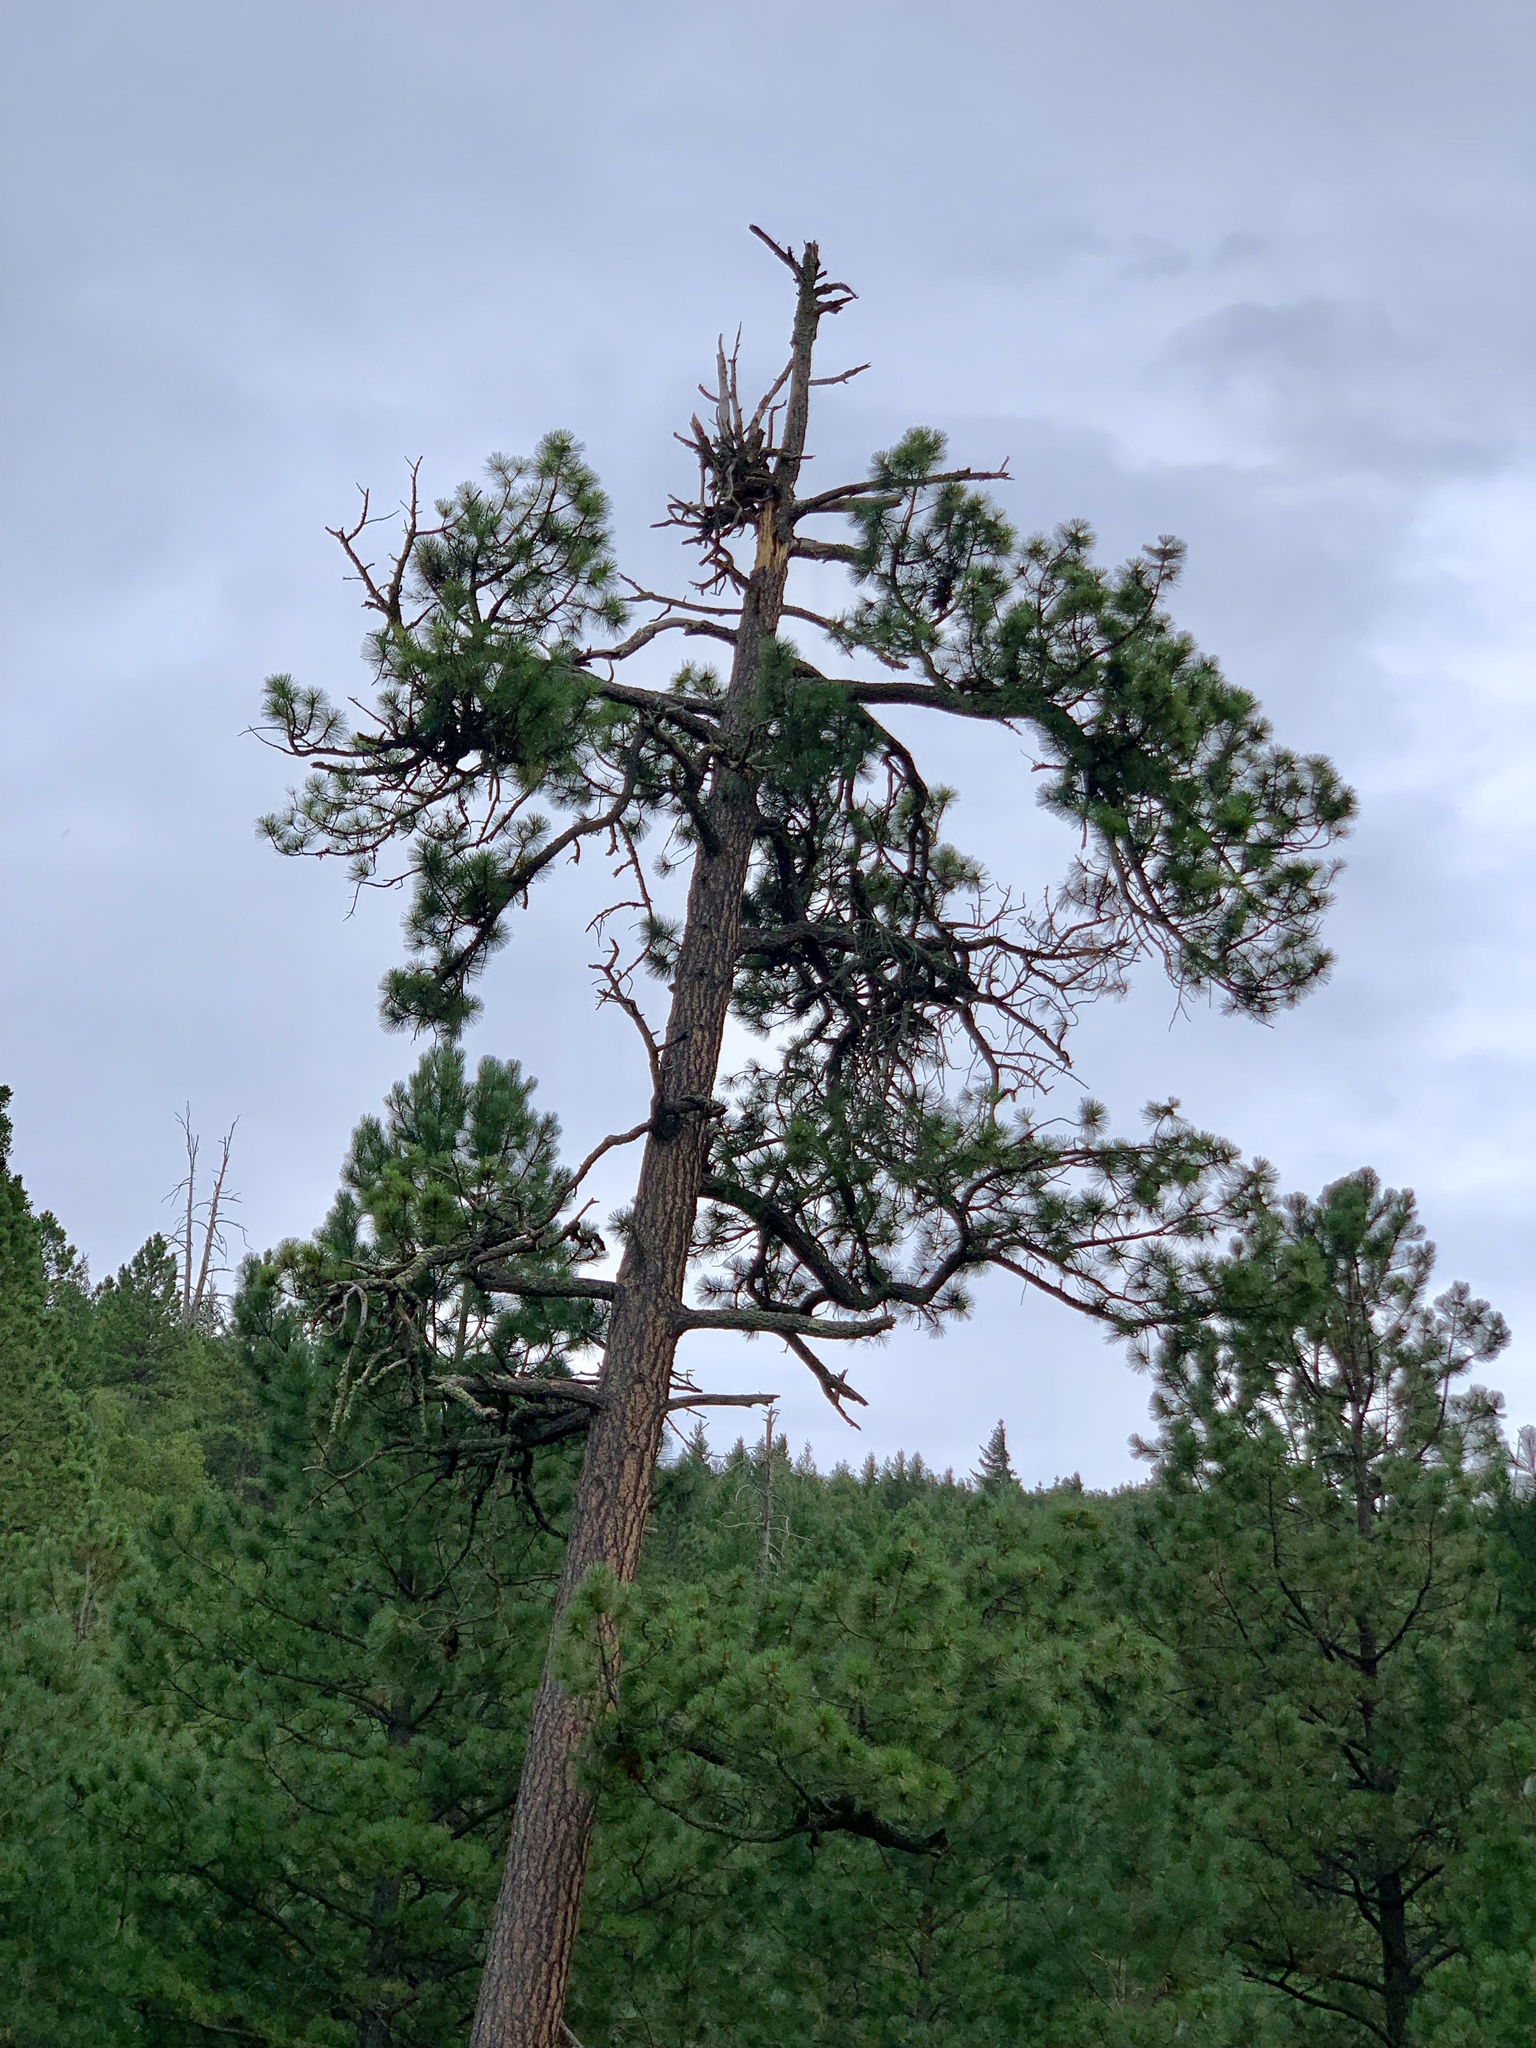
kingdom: Plantae
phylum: Tracheophyta
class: Pinopsida
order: Pinales
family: Pinaceae
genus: Pinus
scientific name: Pinus ponderosa
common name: Western yellow-pine
